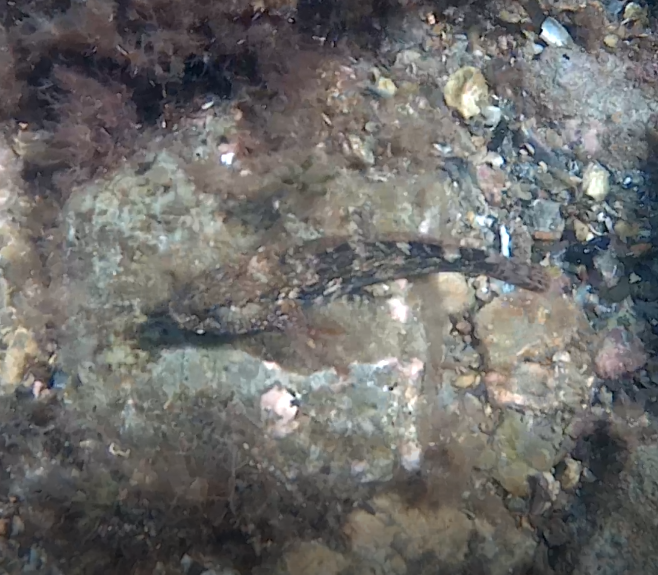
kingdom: Animalia
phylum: Chordata
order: Perciformes
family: Gobiidae
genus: Gobius
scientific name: Gobius cobitis
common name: Giant goby
